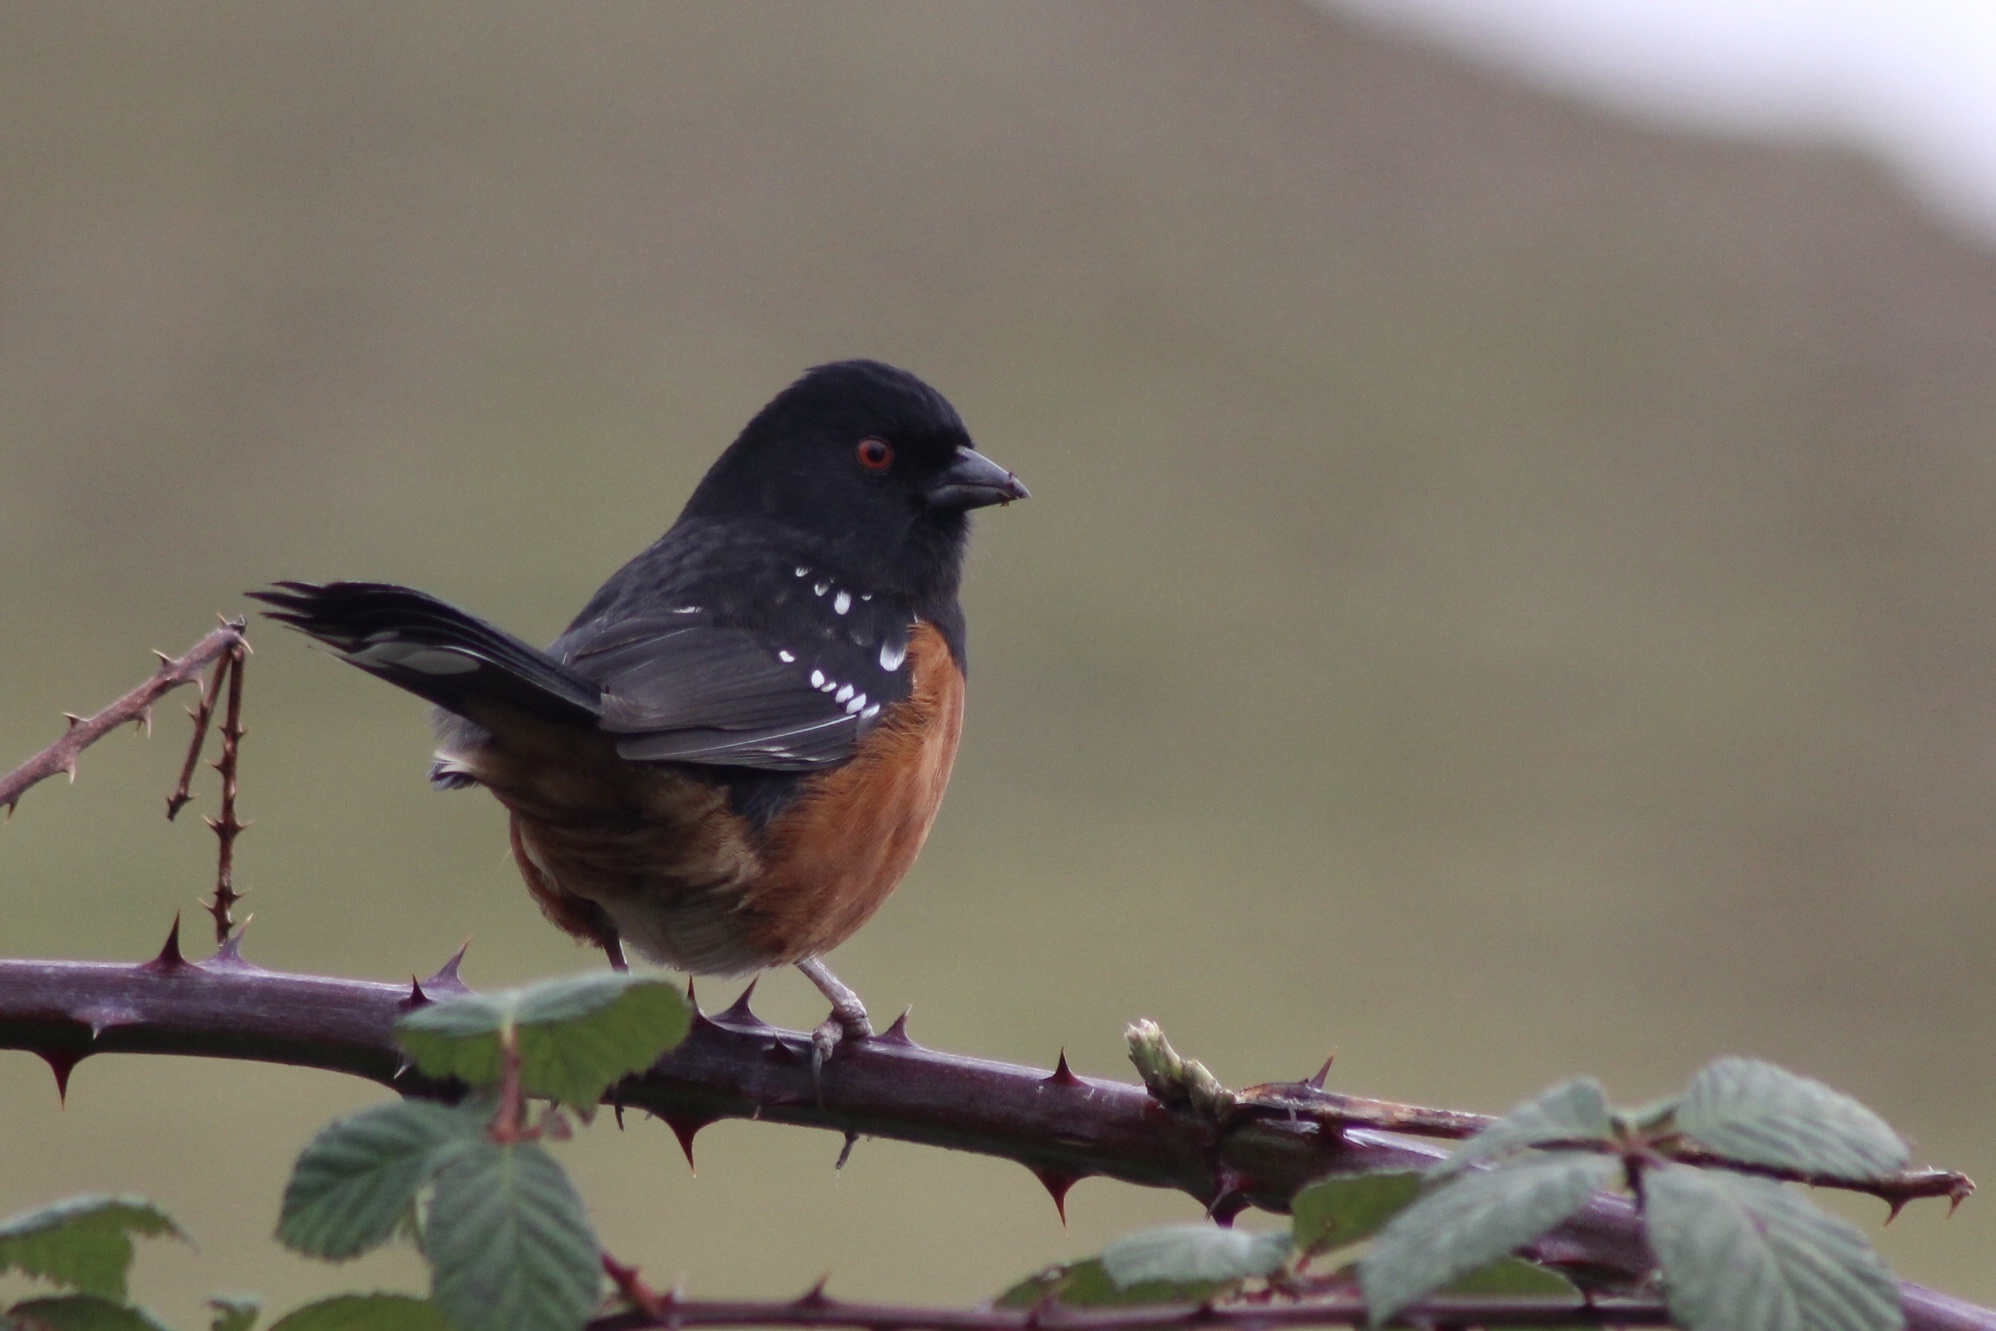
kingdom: Animalia
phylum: Chordata
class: Aves
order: Passeriformes
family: Passerellidae
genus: Pipilo
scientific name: Pipilo maculatus
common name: Spotted towhee
